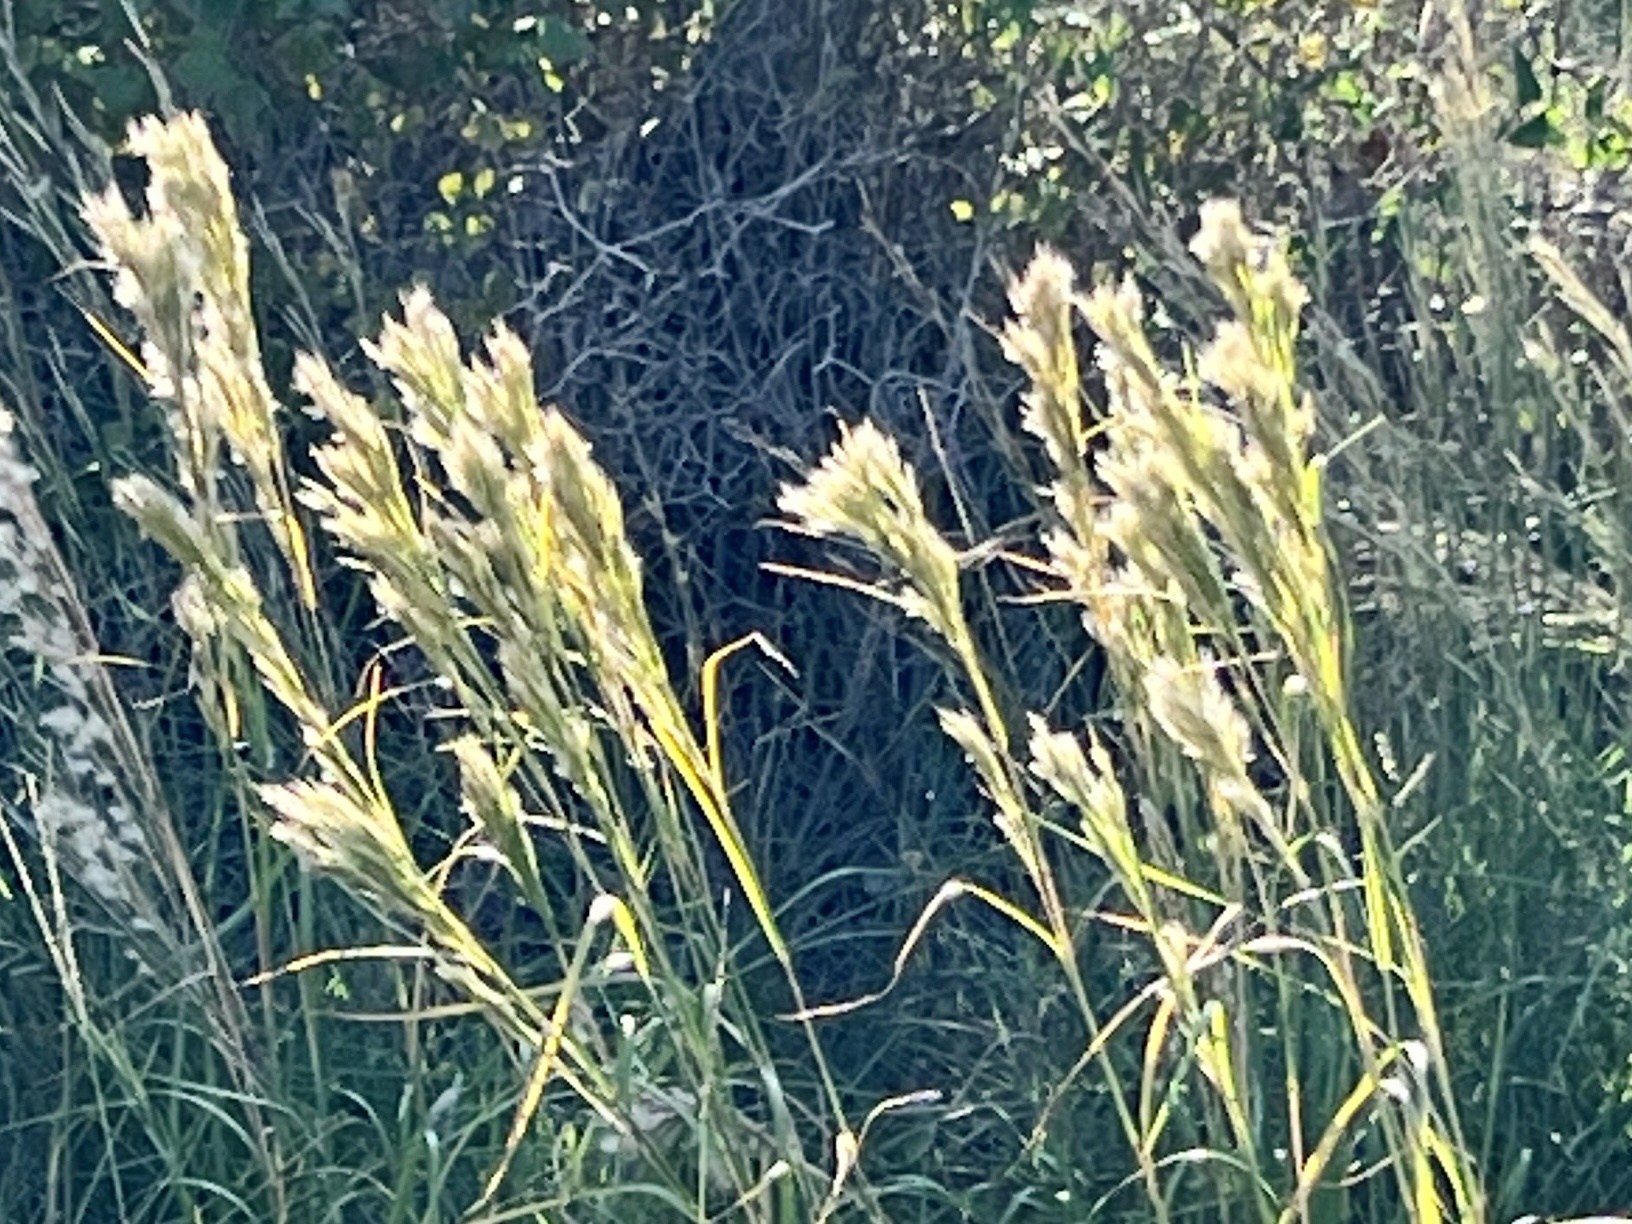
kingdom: Plantae
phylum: Tracheophyta
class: Liliopsida
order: Poales
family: Poaceae
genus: Andropogon
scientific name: Andropogon tenuispatheus
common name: Bushy bluestem
